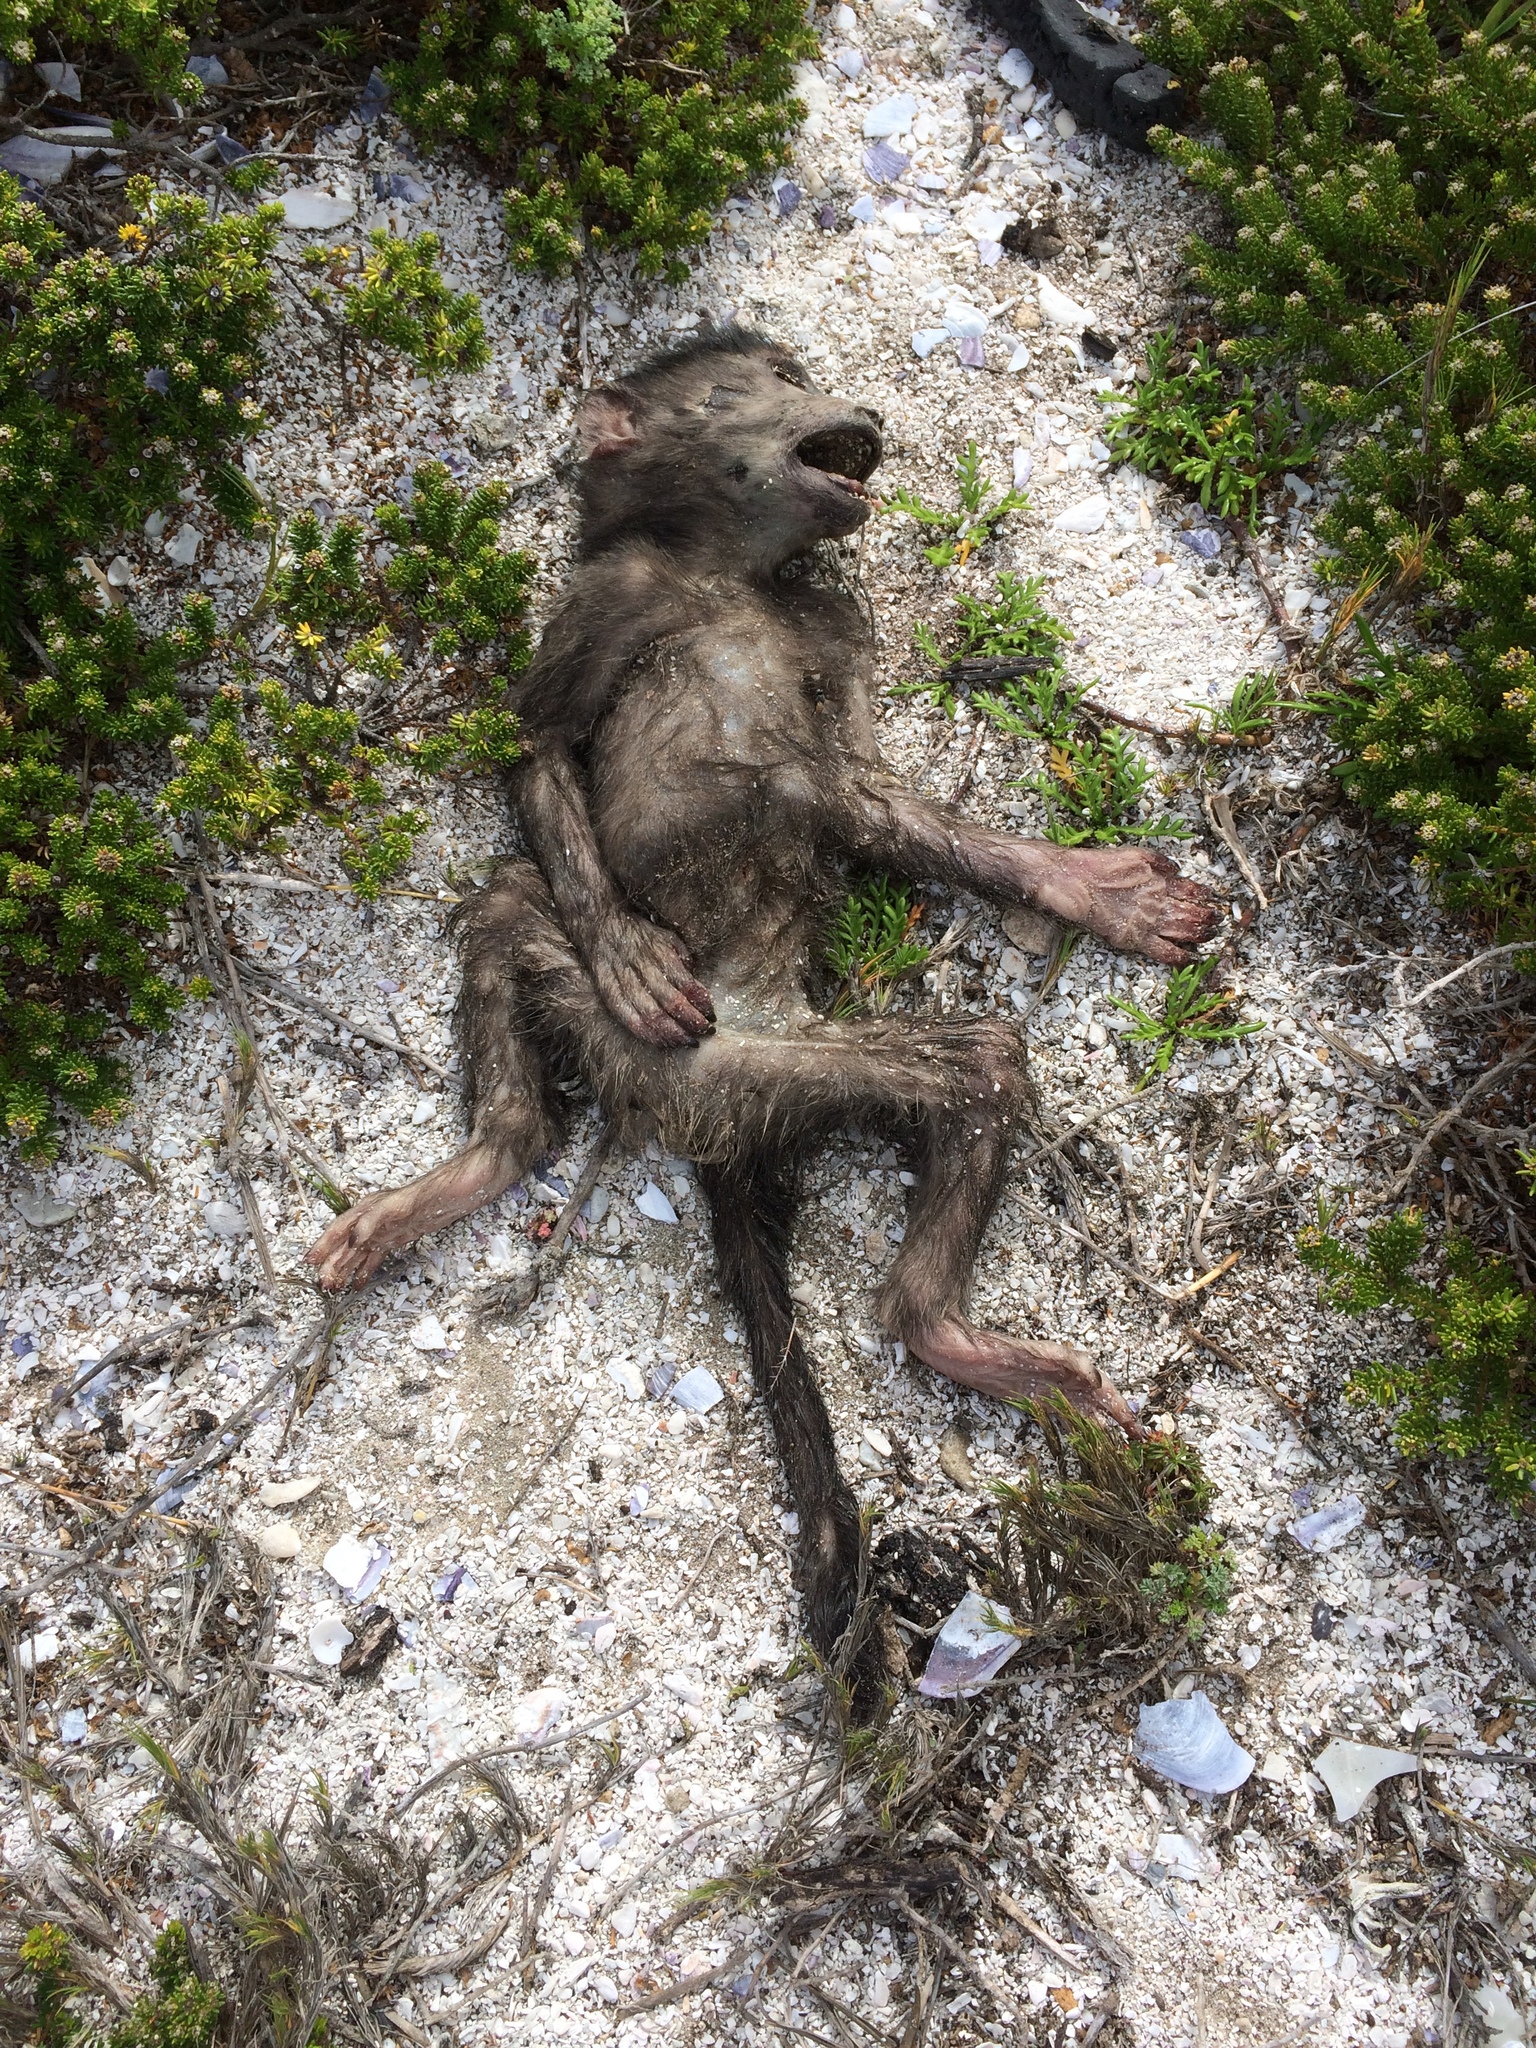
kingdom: Animalia
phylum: Chordata
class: Mammalia
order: Primates
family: Cercopithecidae
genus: Papio
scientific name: Papio ursinus
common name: Chacma baboon
